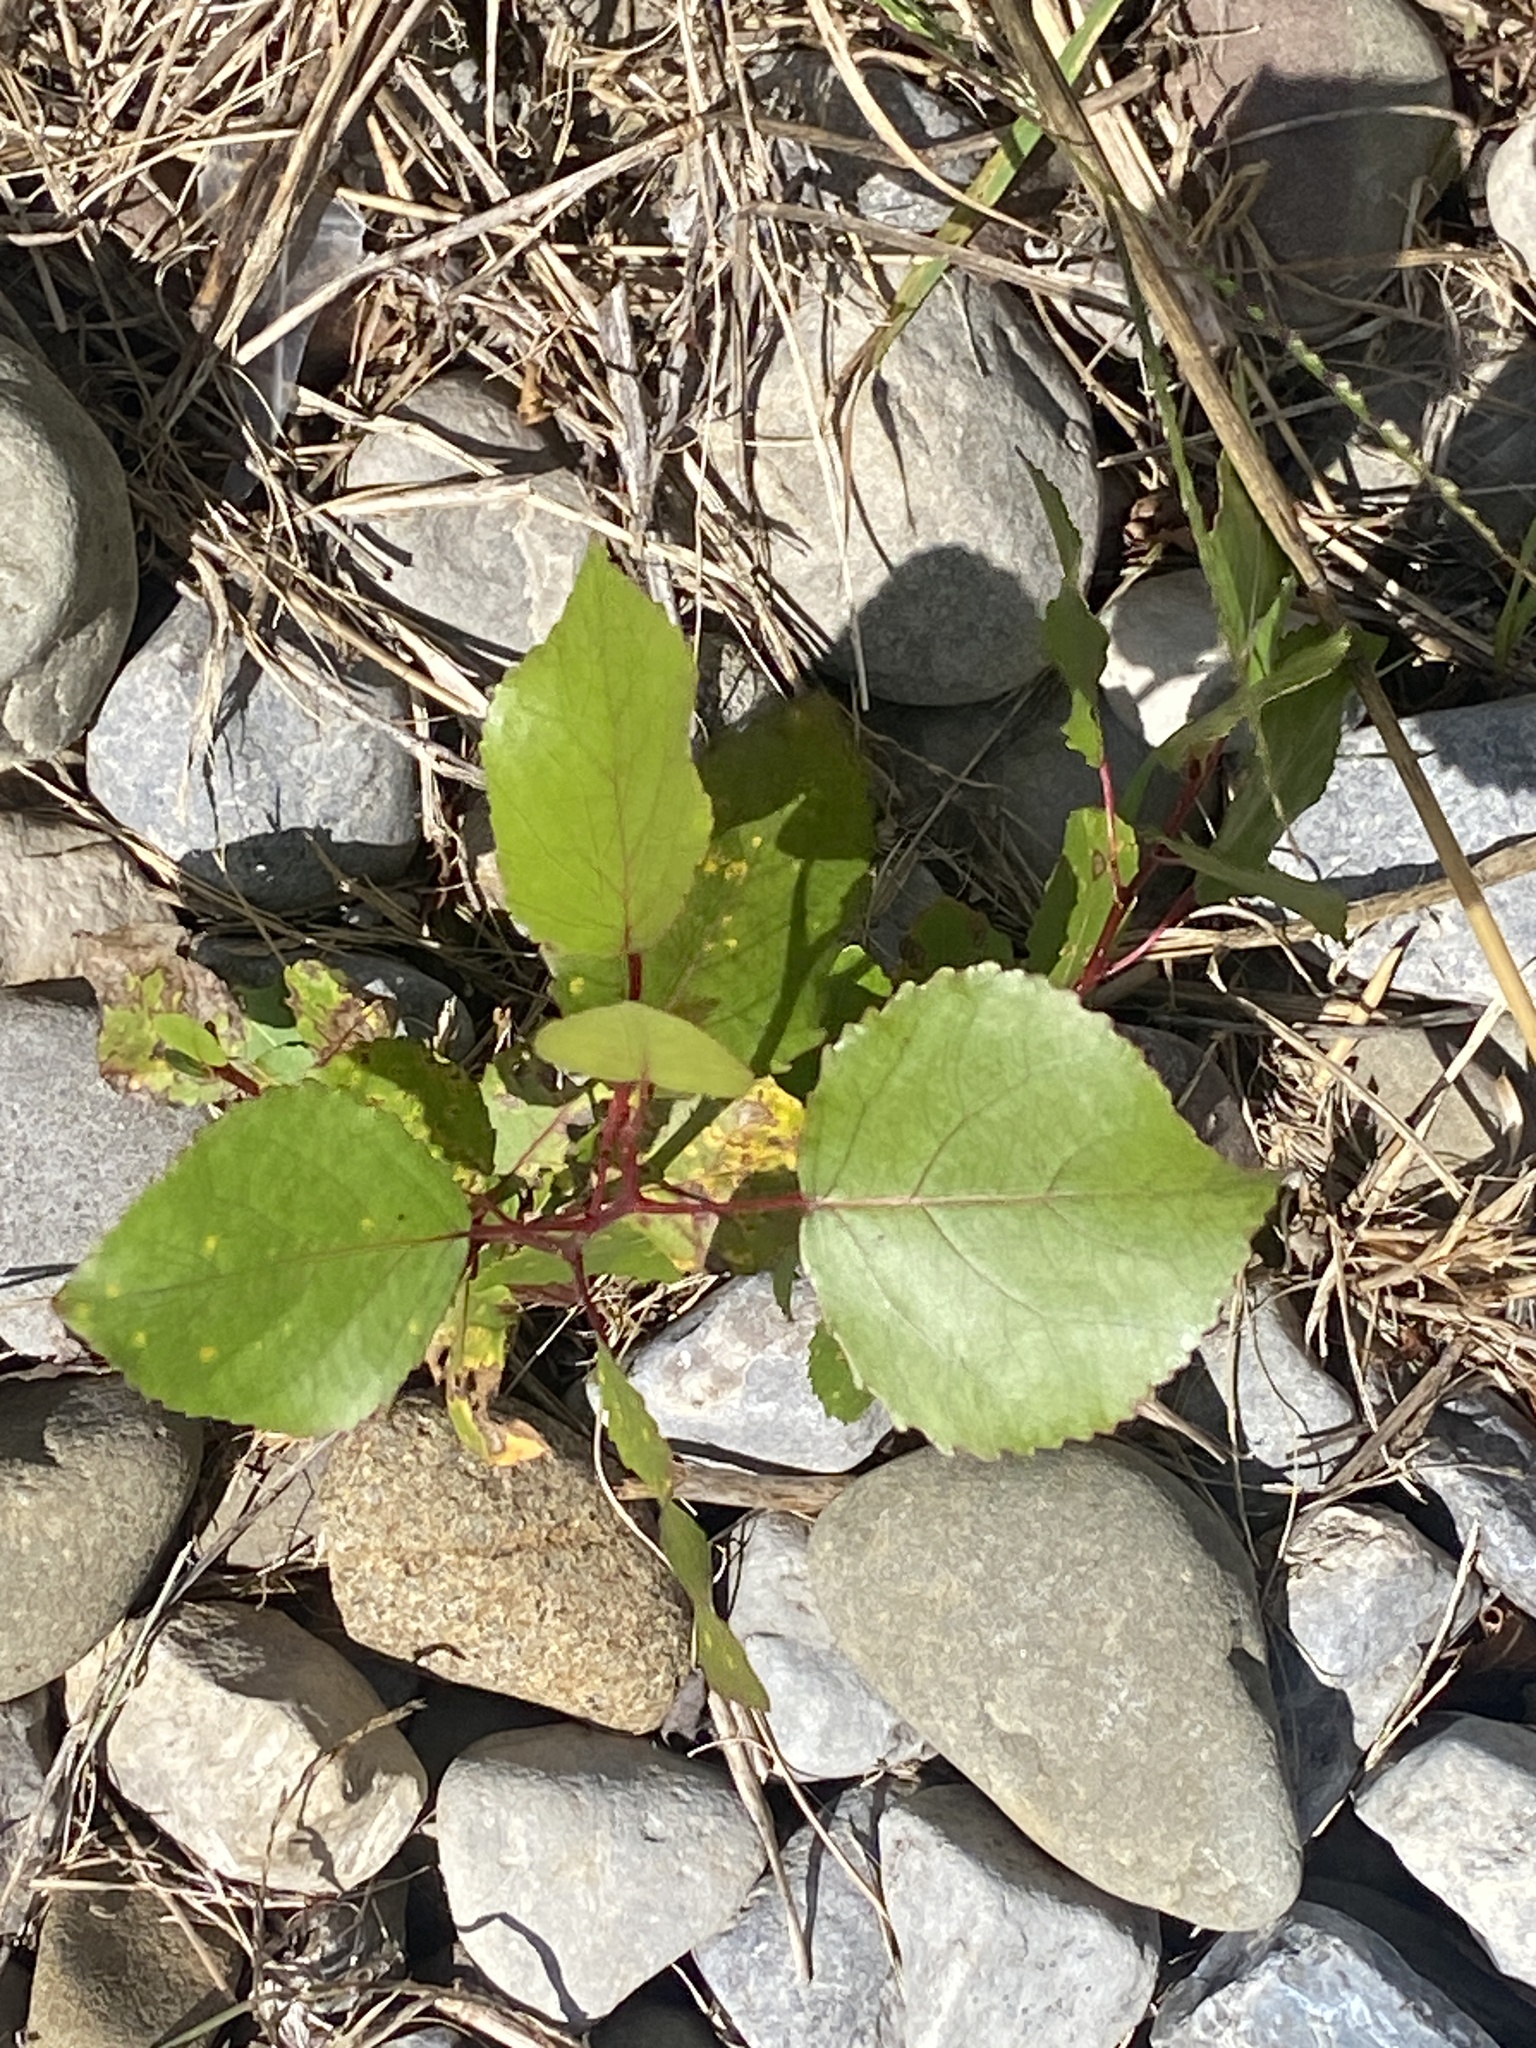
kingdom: Plantae
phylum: Tracheophyta
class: Magnoliopsida
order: Malpighiales
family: Salicaceae
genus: Populus
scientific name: Populus deltoides
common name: Eastern cottonwood
